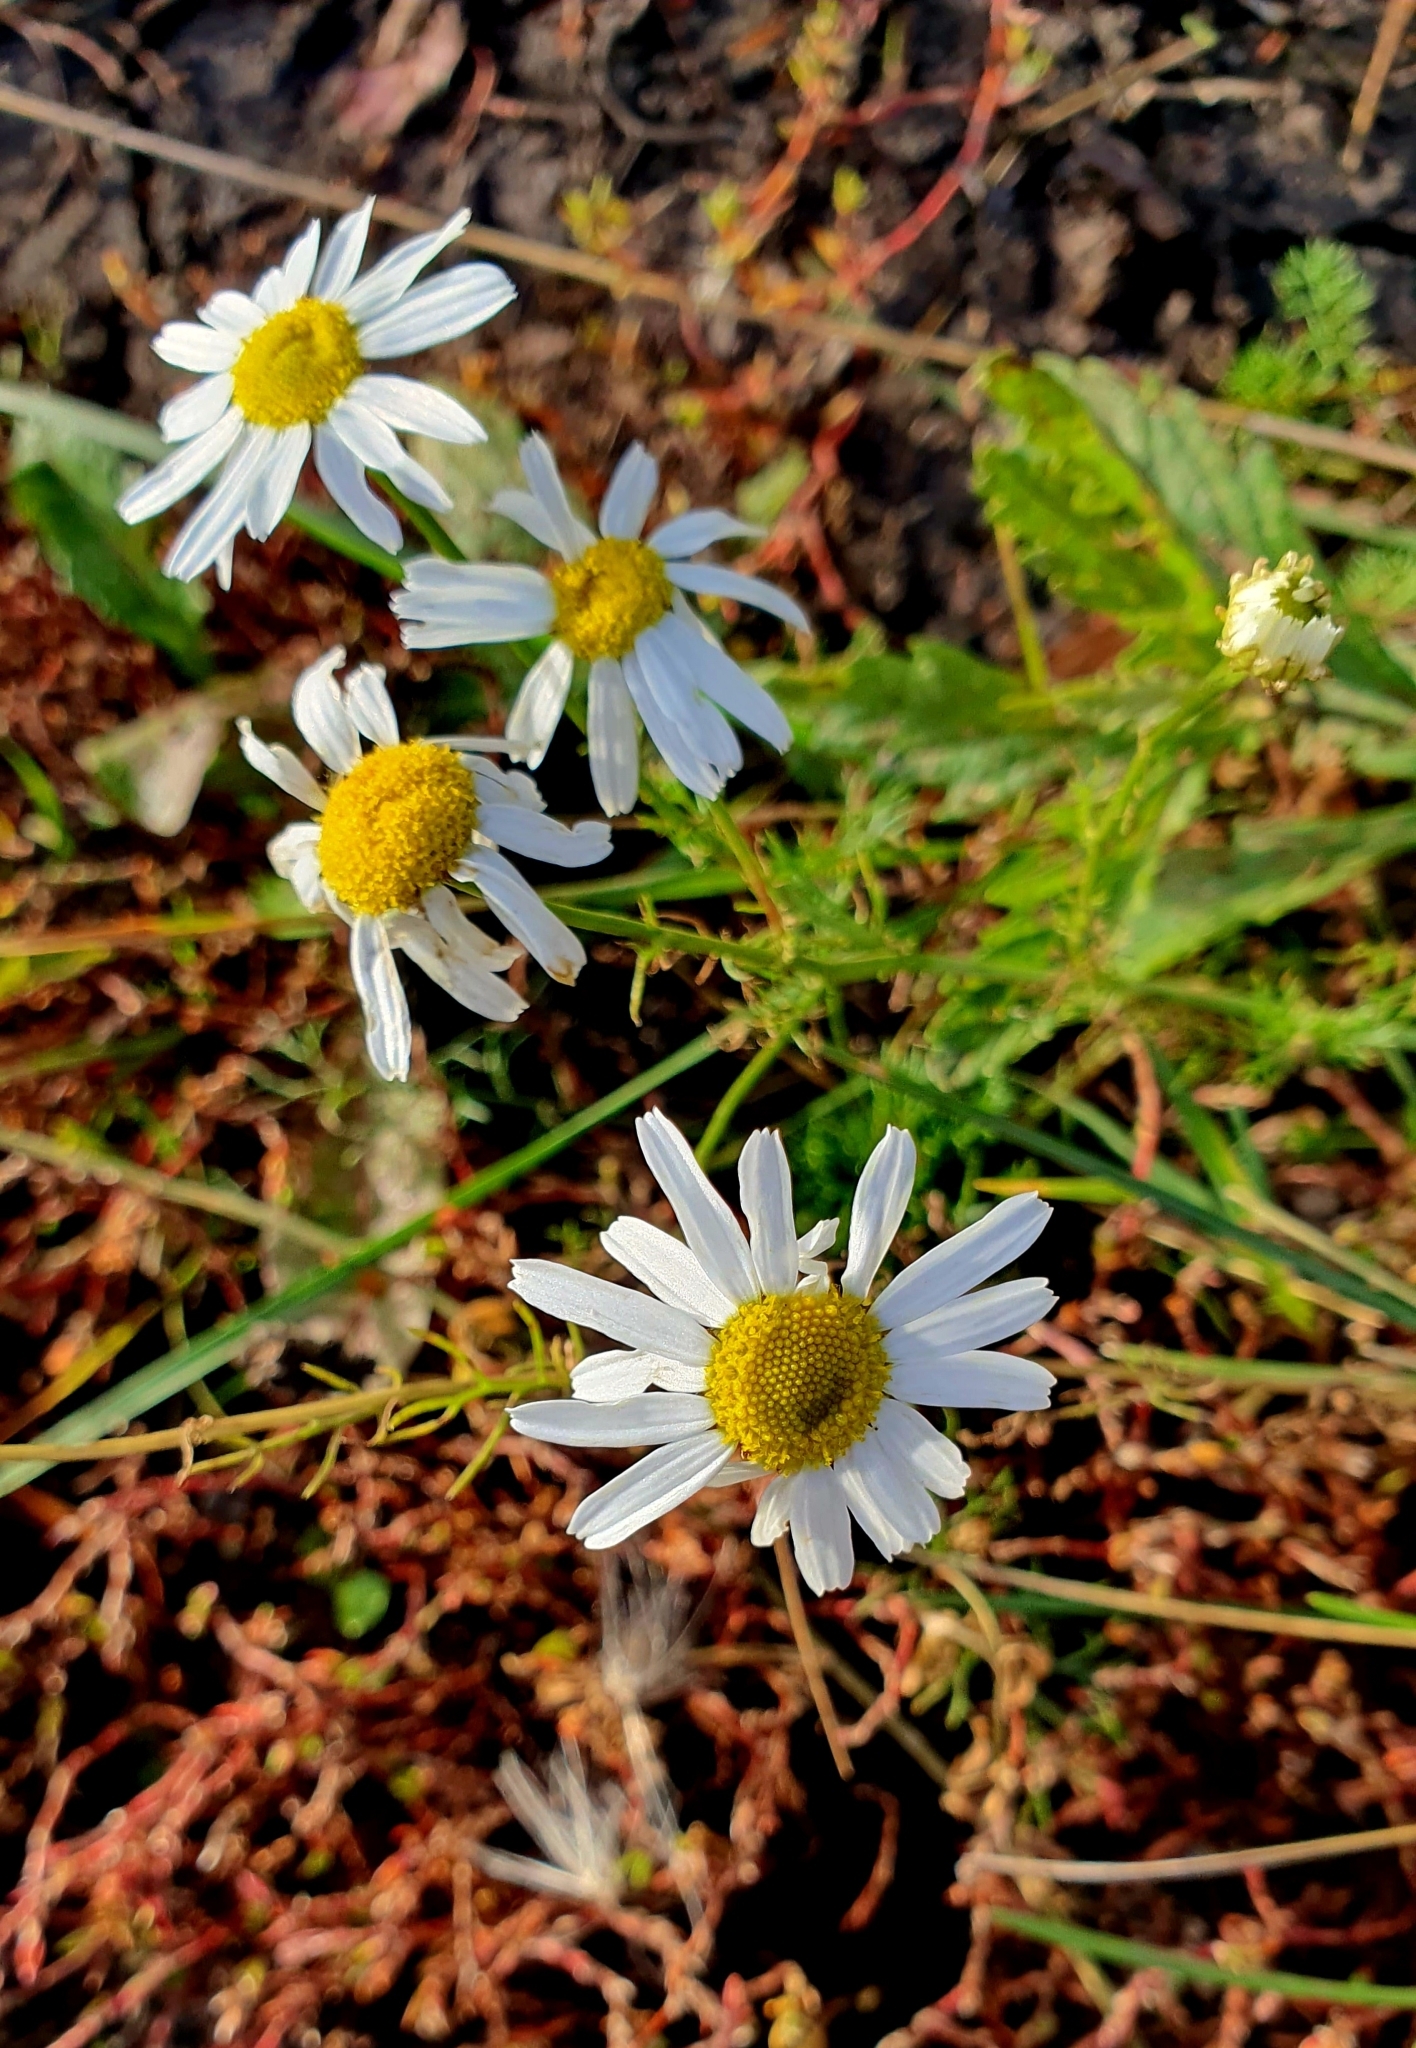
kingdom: Plantae
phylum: Tracheophyta
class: Magnoliopsida
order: Asterales
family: Asteraceae
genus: Tripleurospermum
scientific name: Tripleurospermum inodorum
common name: Scentless mayweed
